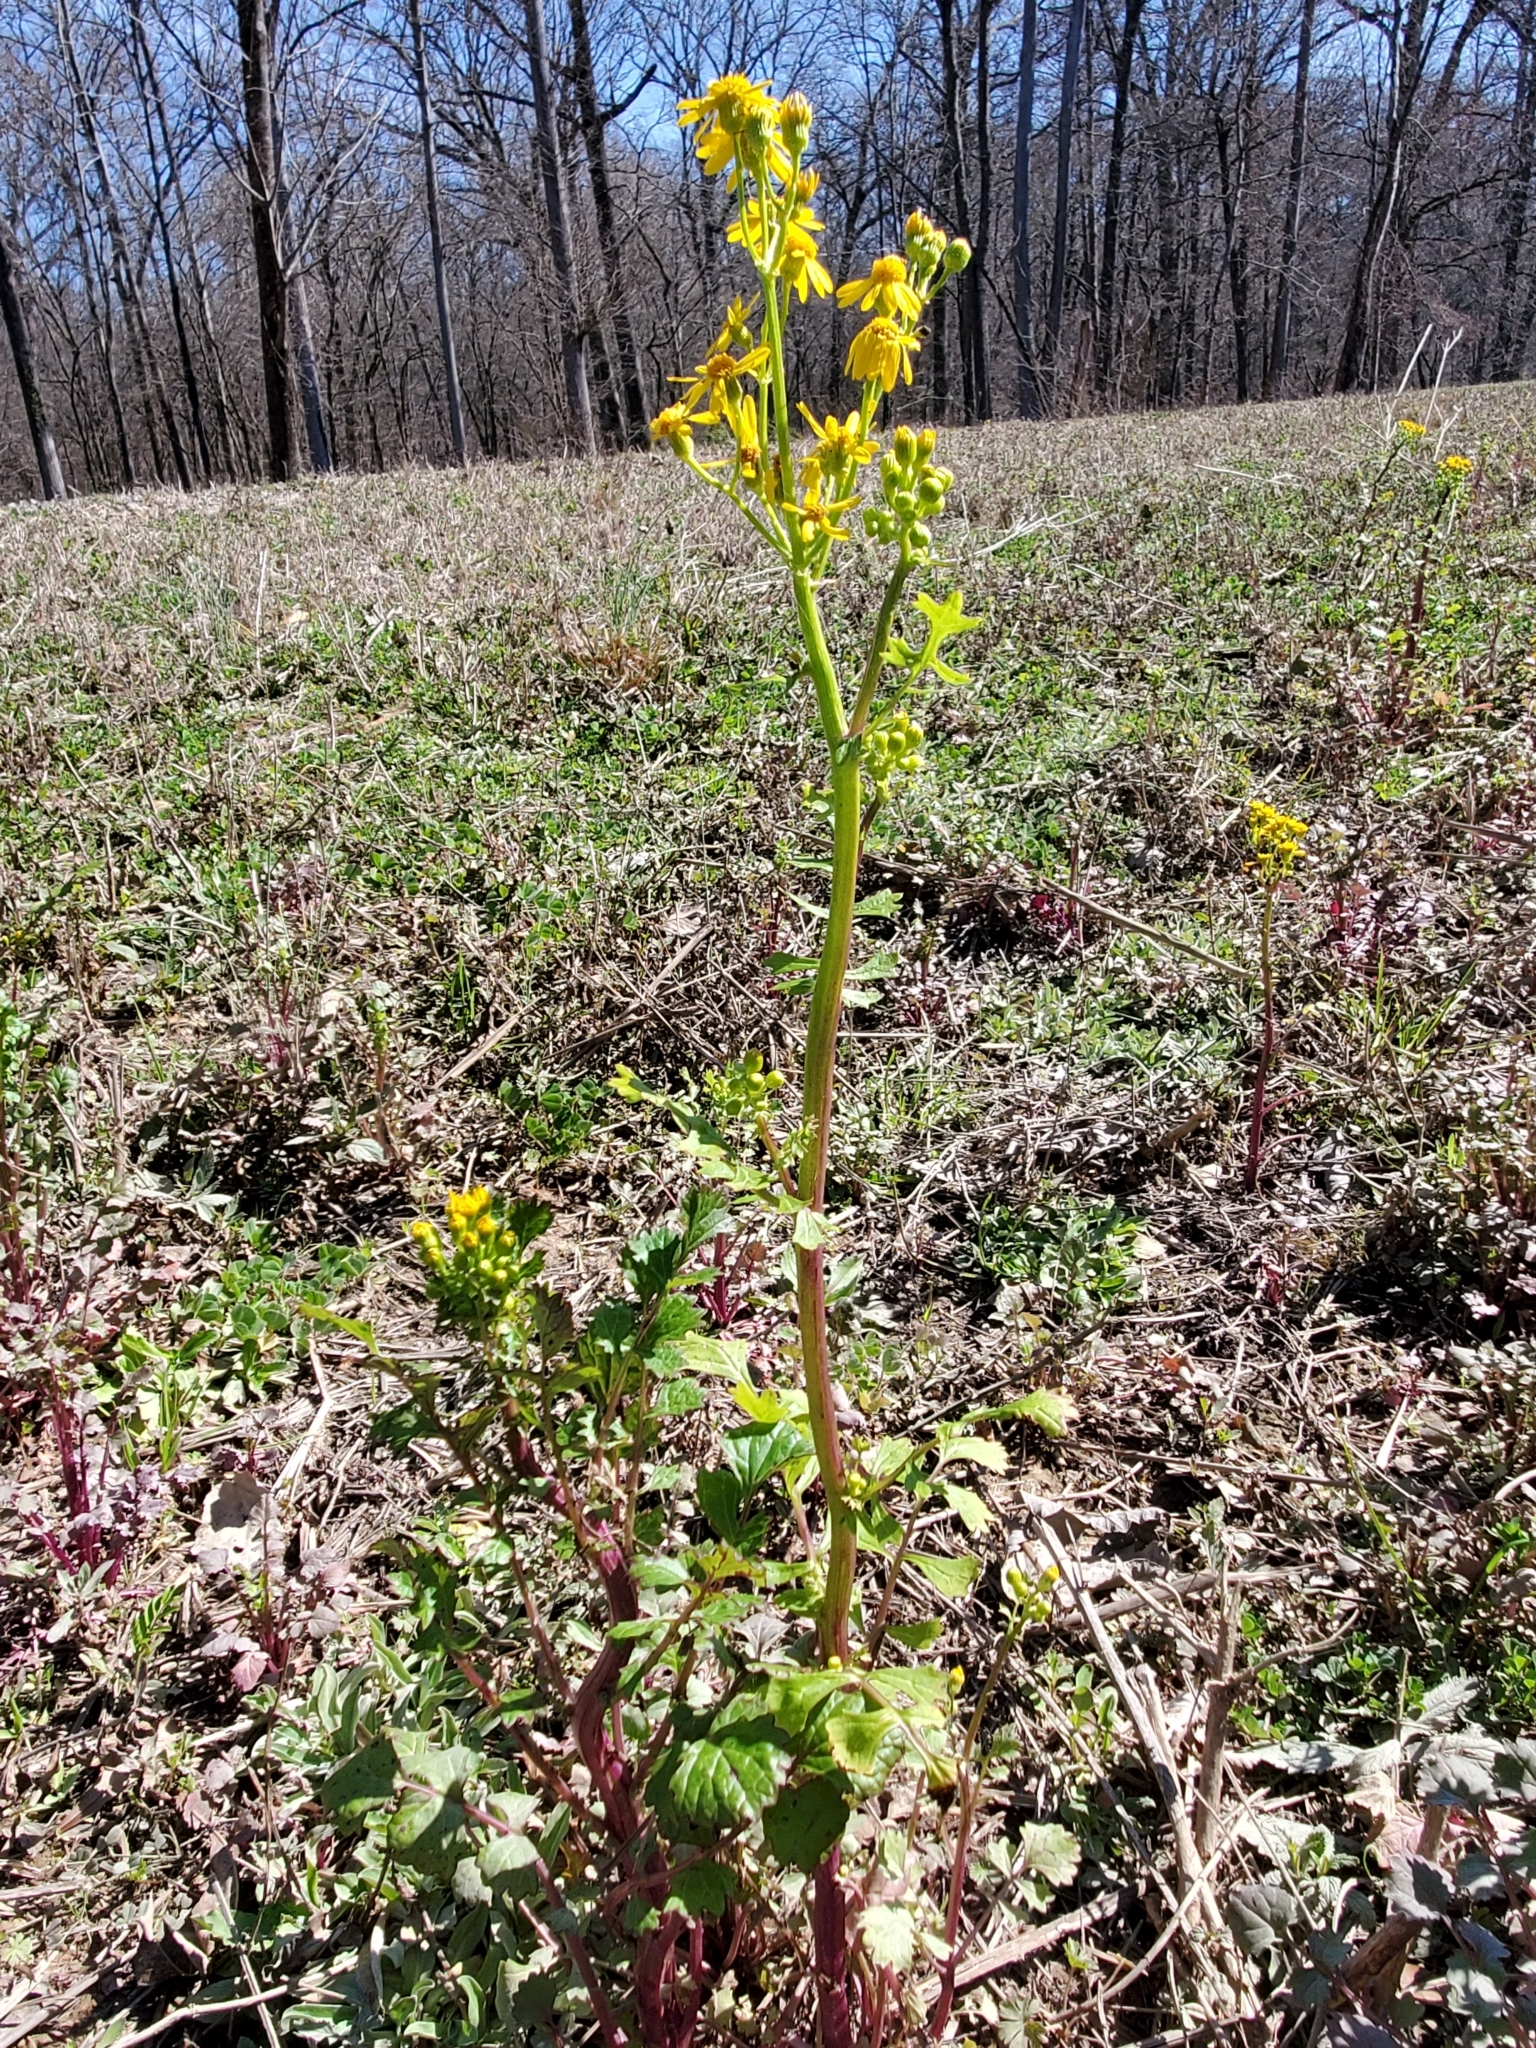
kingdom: Plantae
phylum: Tracheophyta
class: Magnoliopsida
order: Asterales
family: Asteraceae
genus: Packera
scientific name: Packera glabella
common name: Butterweed
